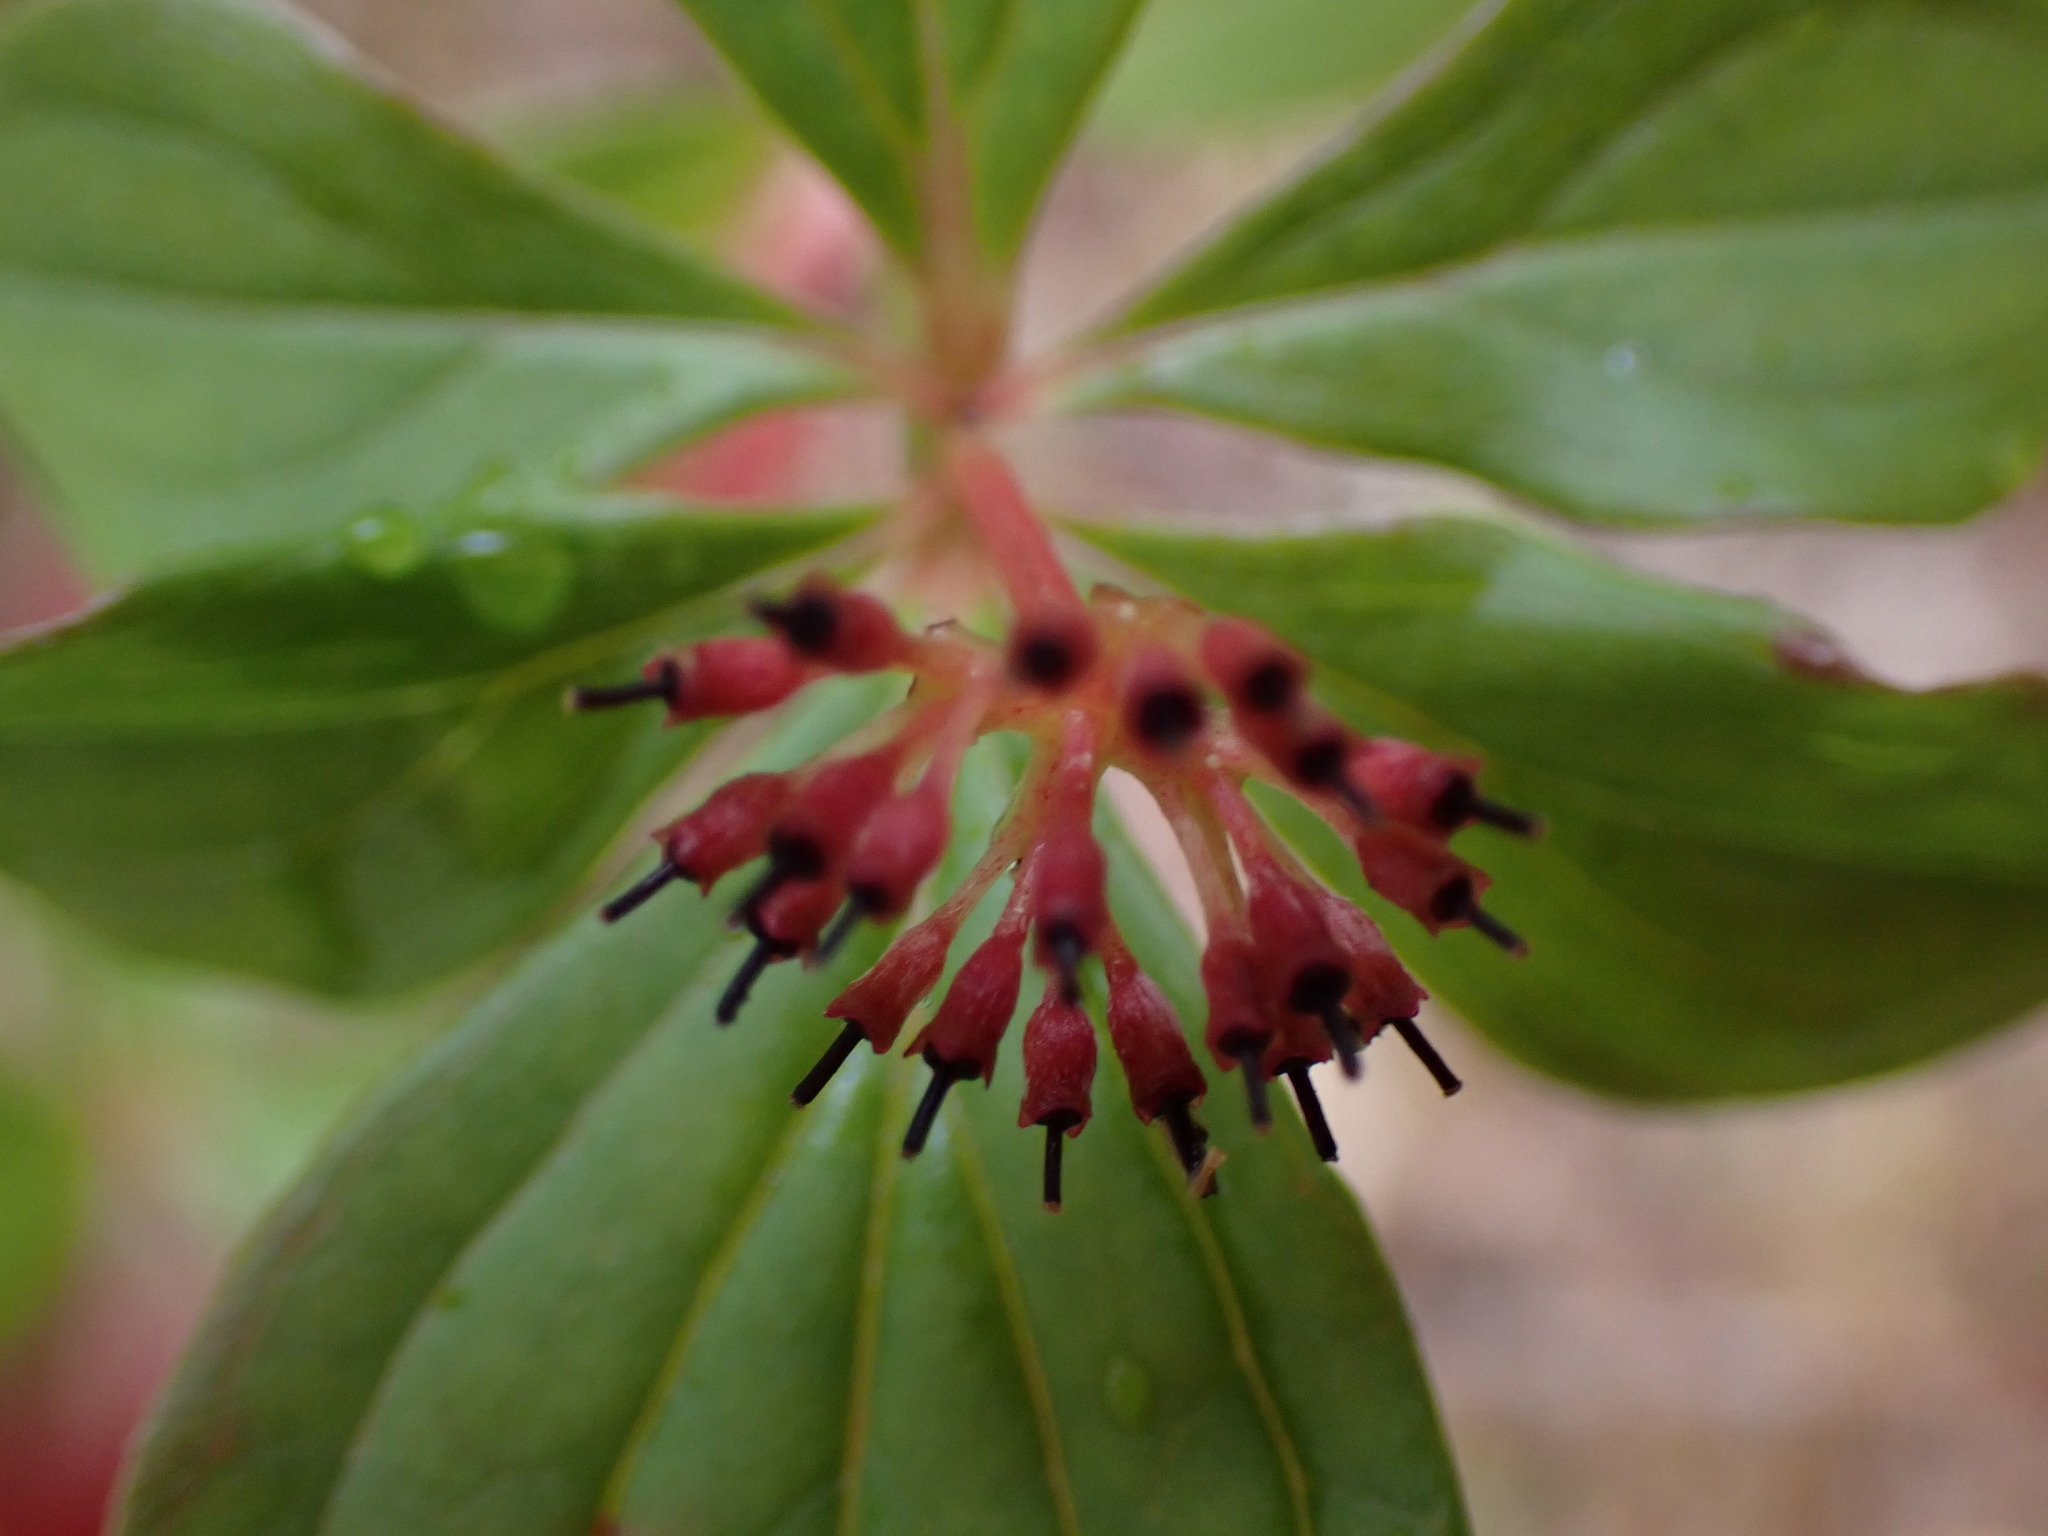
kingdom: Plantae
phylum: Tracheophyta
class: Magnoliopsida
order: Cornales
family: Cornaceae
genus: Cornus
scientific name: Cornus unalaschkensis
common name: Alaska bunchberry
